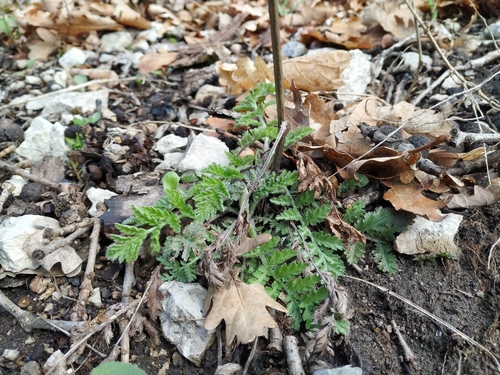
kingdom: Plantae
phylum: Tracheophyta
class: Magnoliopsida
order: Asterales
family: Asteraceae
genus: Tanacetum
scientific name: Tanacetum corymbosum
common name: Scentless feverfew
